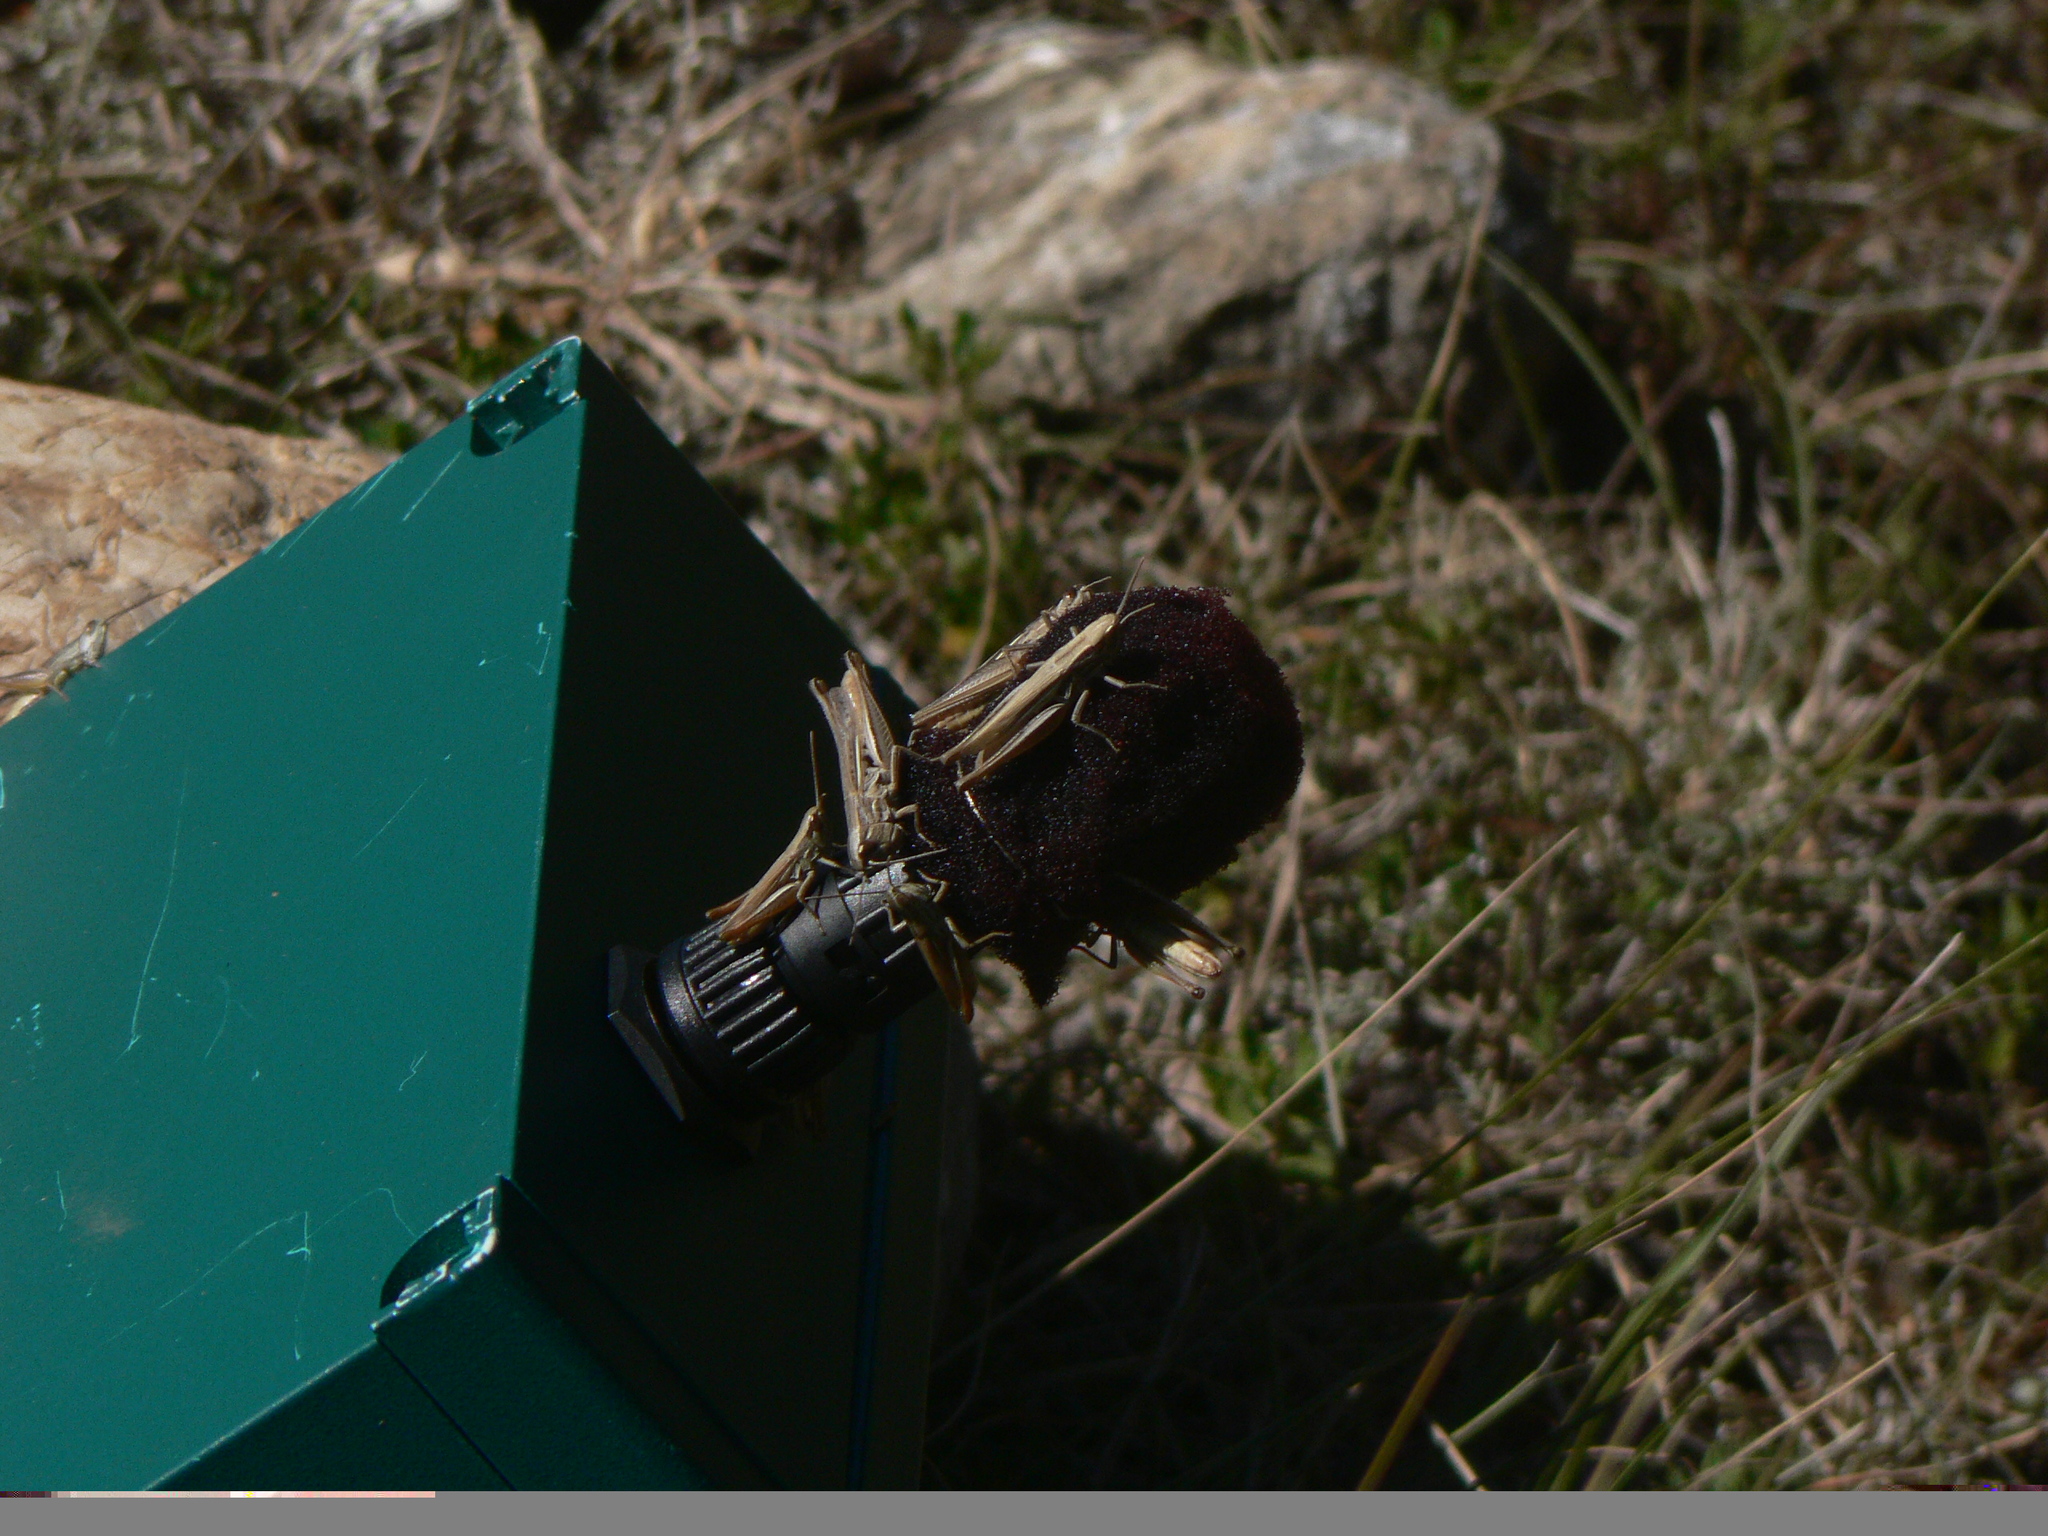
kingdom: Animalia
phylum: Arthropoda
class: Insecta
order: Orthoptera
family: Acrididae
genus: Euchorthippus
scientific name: Euchorthippus elegantulus
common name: Elegant straw grasshopper
